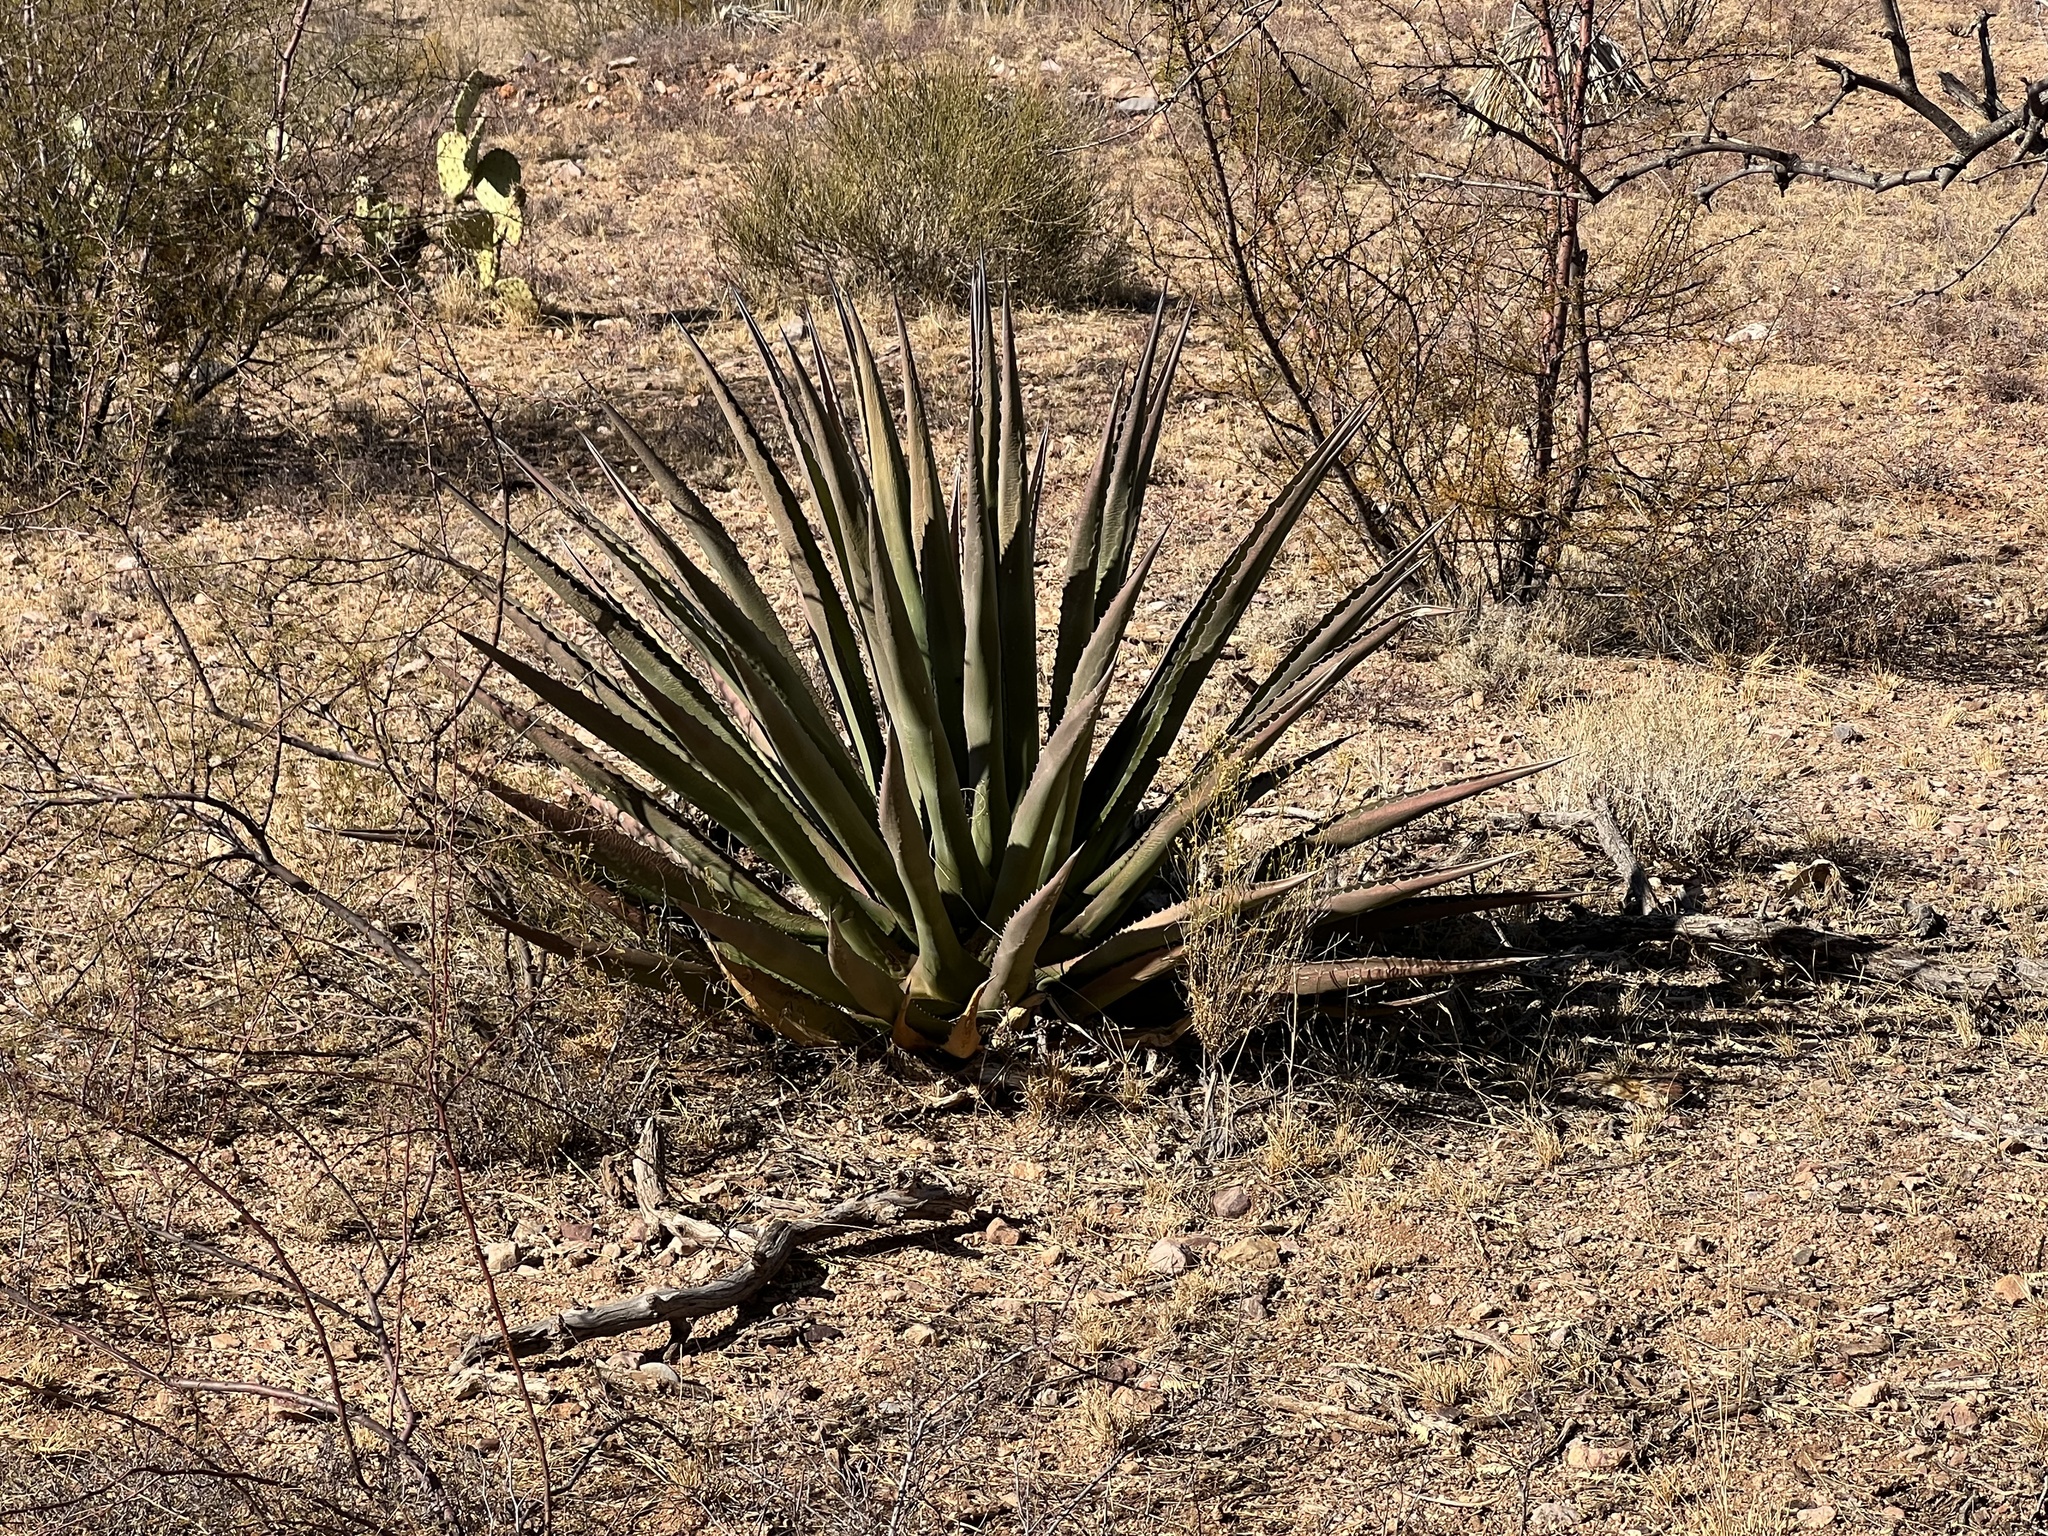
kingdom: Plantae
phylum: Tracheophyta
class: Liliopsida
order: Asparagales
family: Asparagaceae
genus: Agave
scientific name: Agave palmeri
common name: Palmer agave
